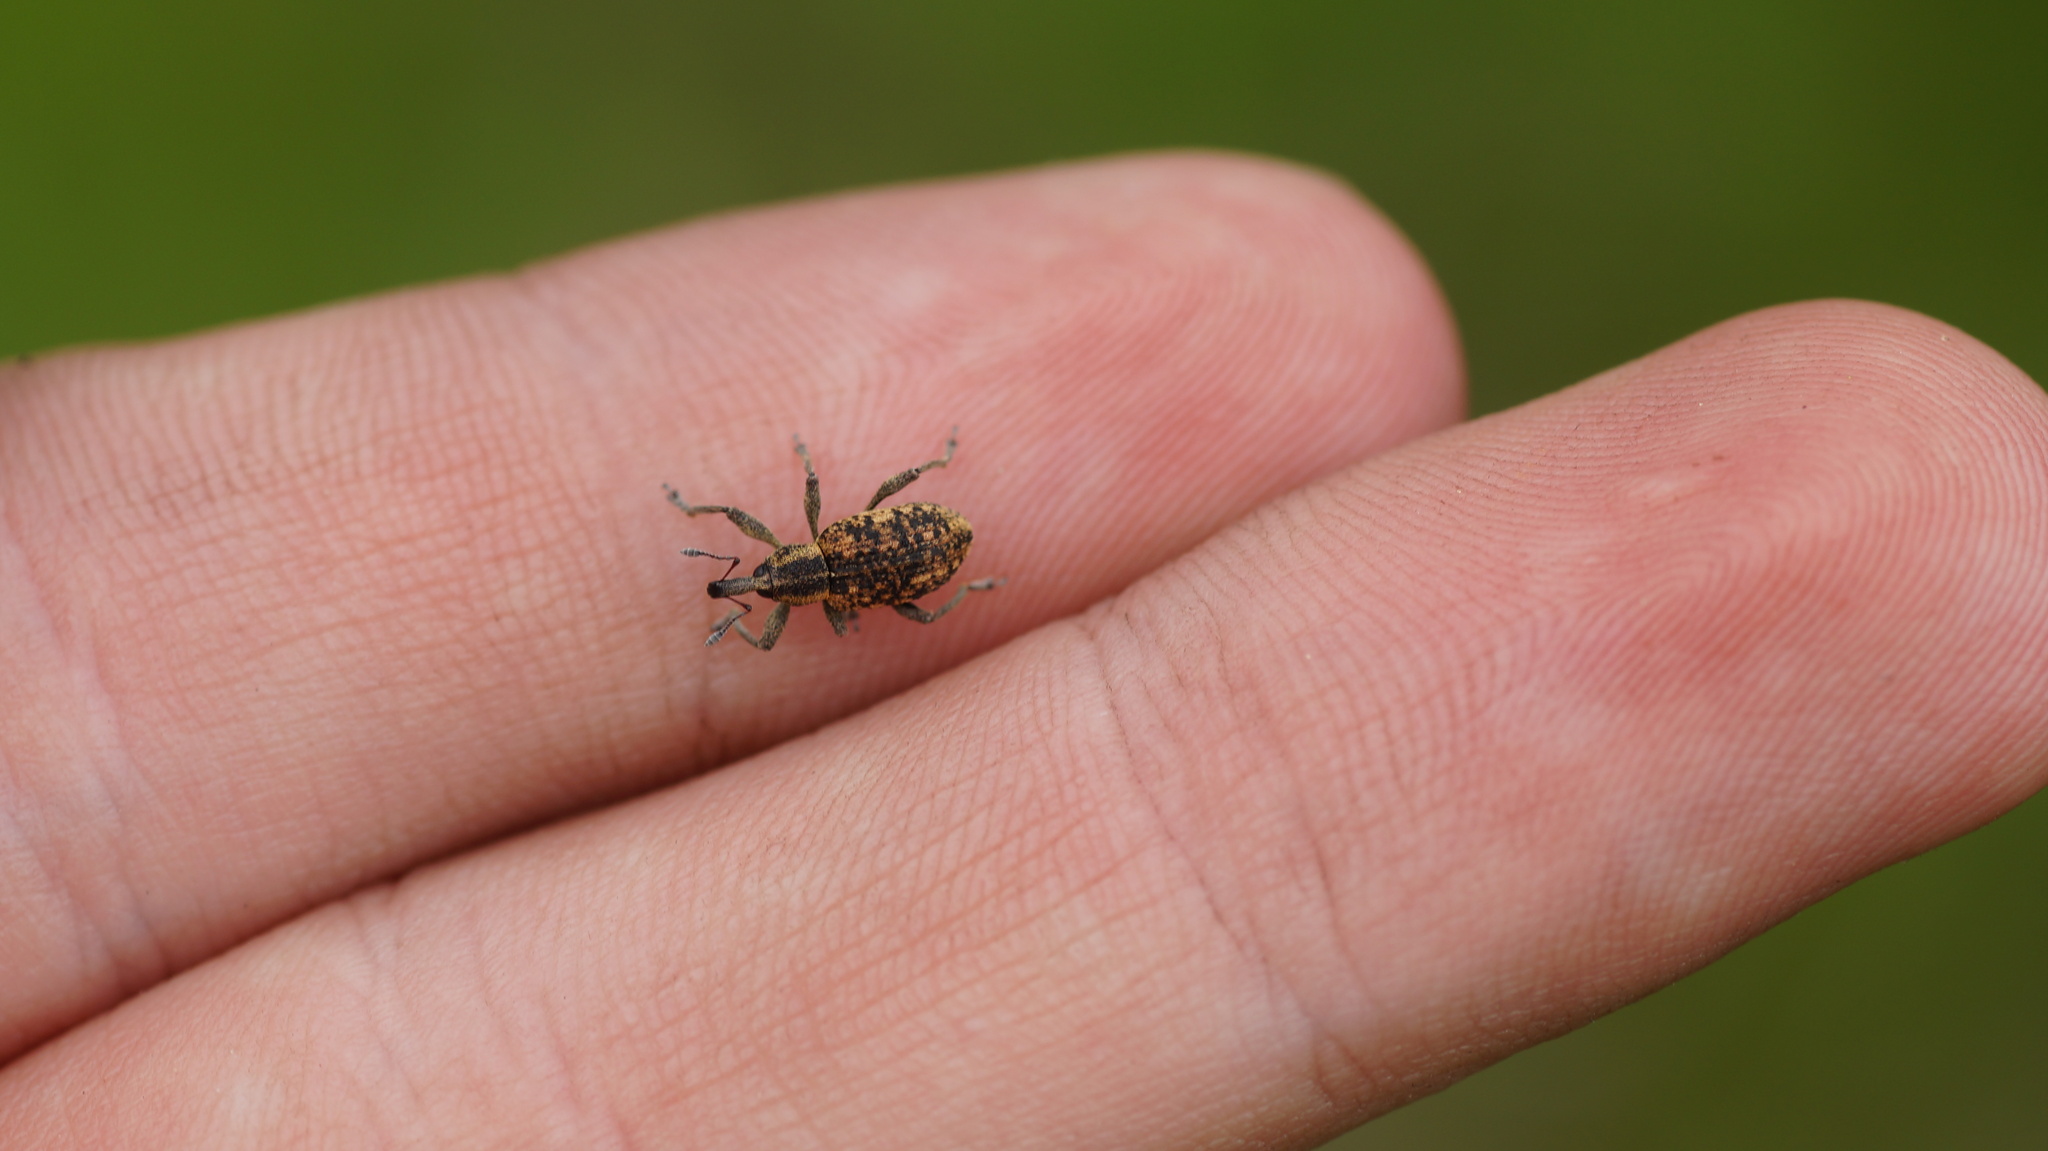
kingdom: Animalia
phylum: Arthropoda
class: Insecta
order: Coleoptera
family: Curculionidae
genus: Hypera
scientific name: Hypera conmaculata
